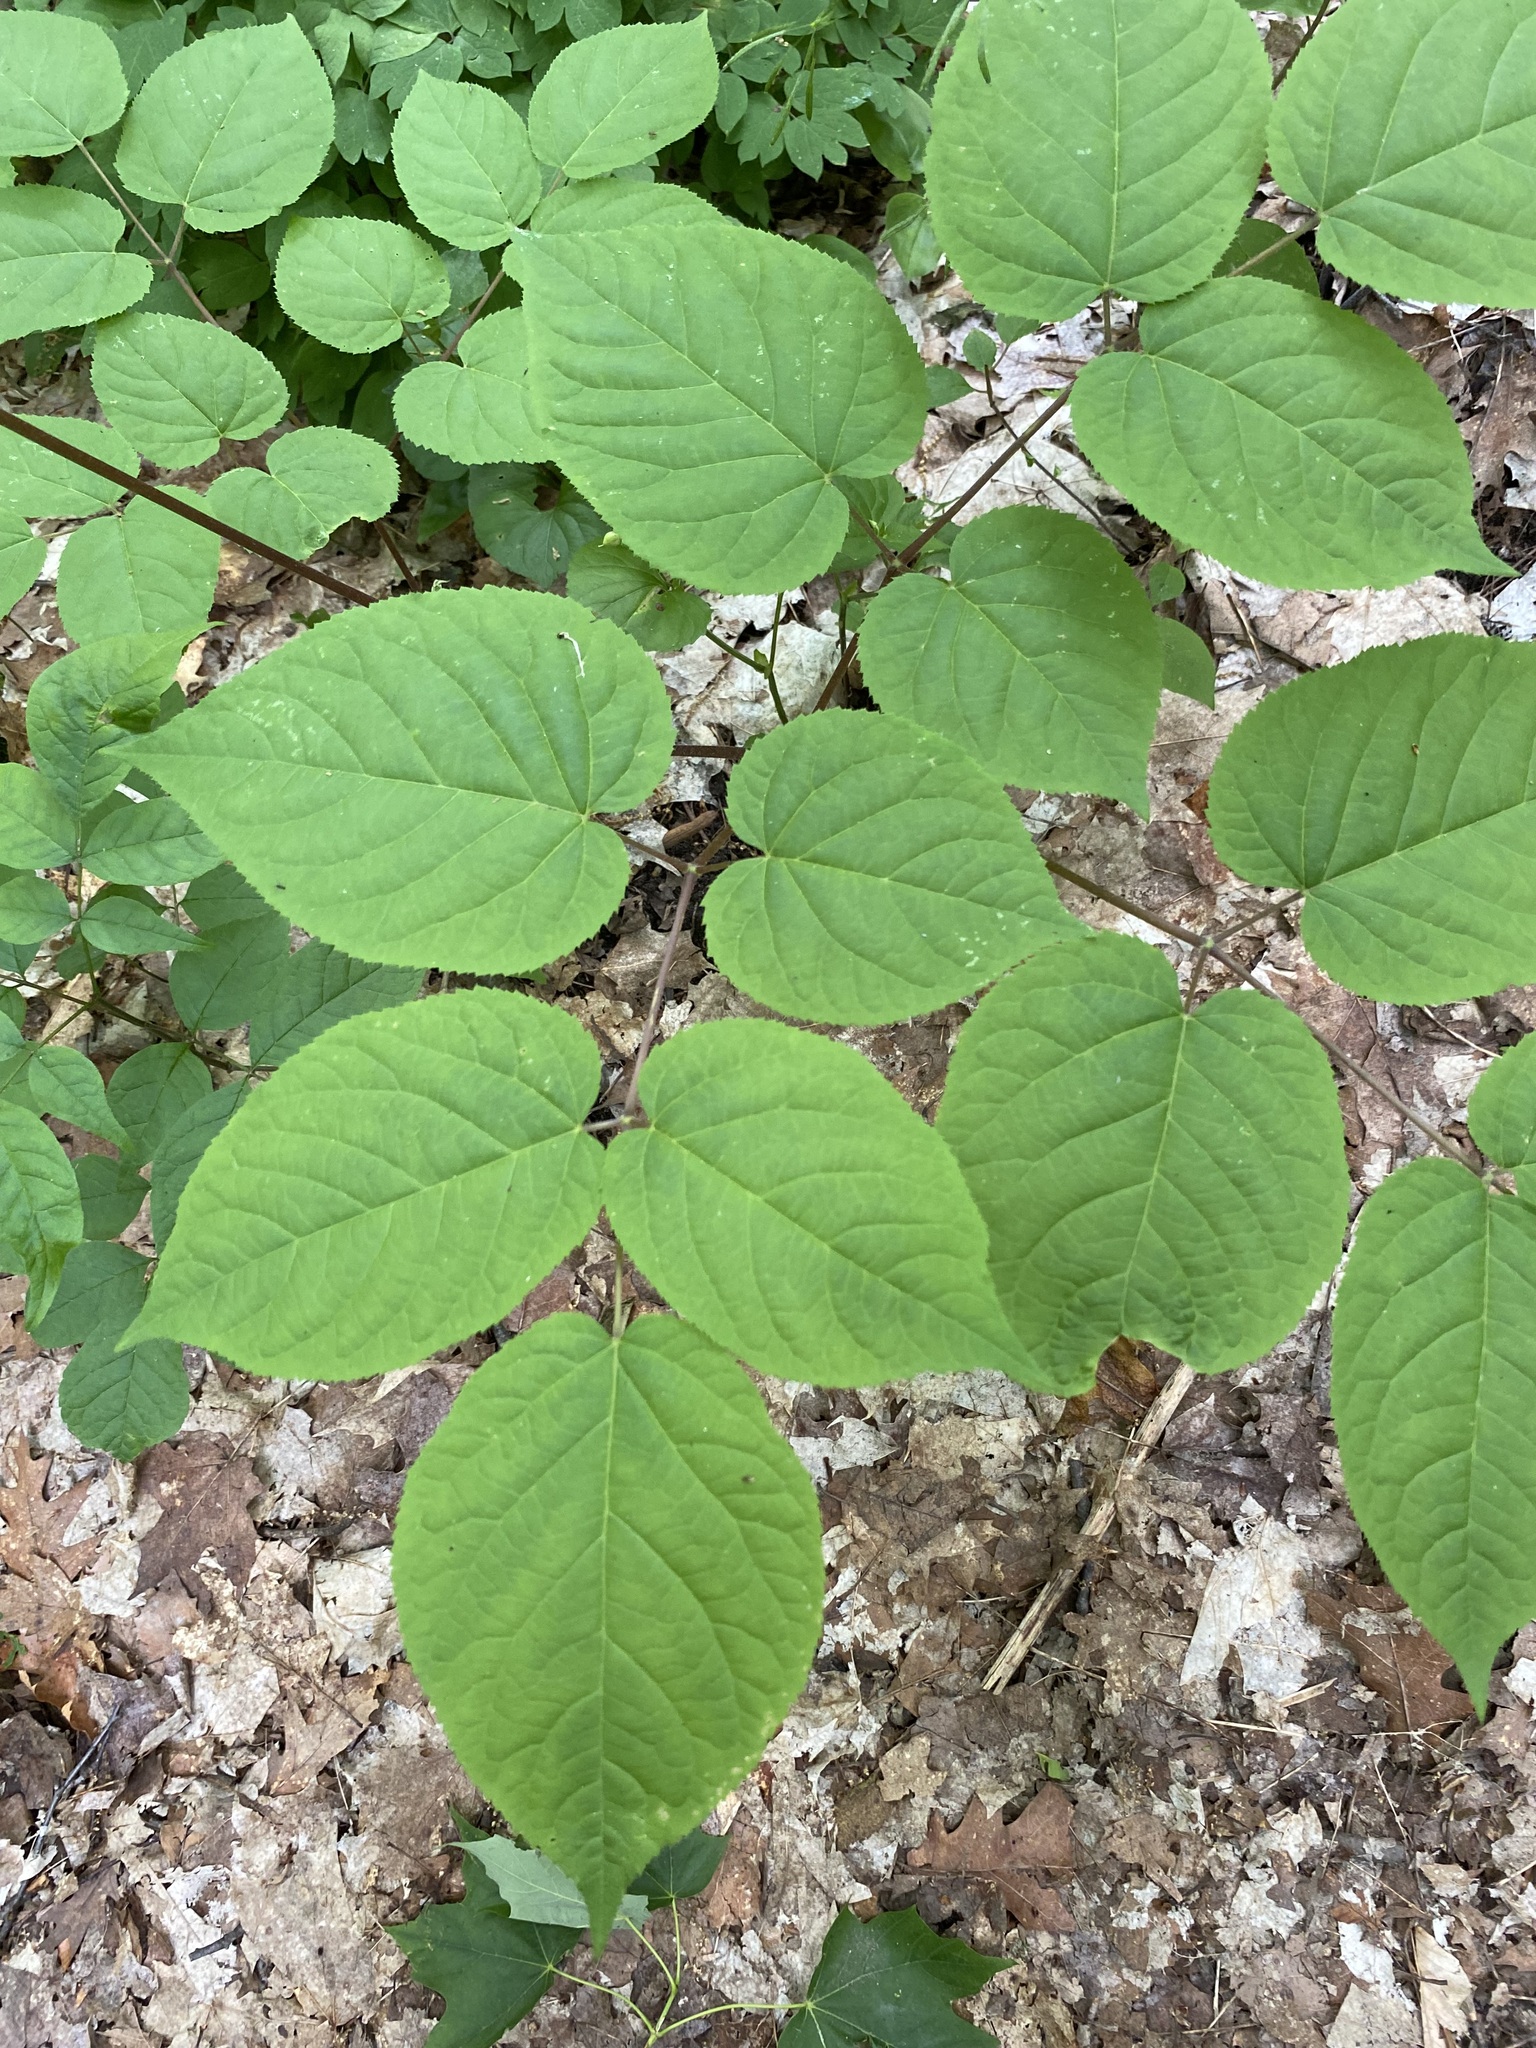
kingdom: Plantae
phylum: Tracheophyta
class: Magnoliopsida
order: Apiales
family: Araliaceae
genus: Aralia
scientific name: Aralia racemosa
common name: American-spikenard
